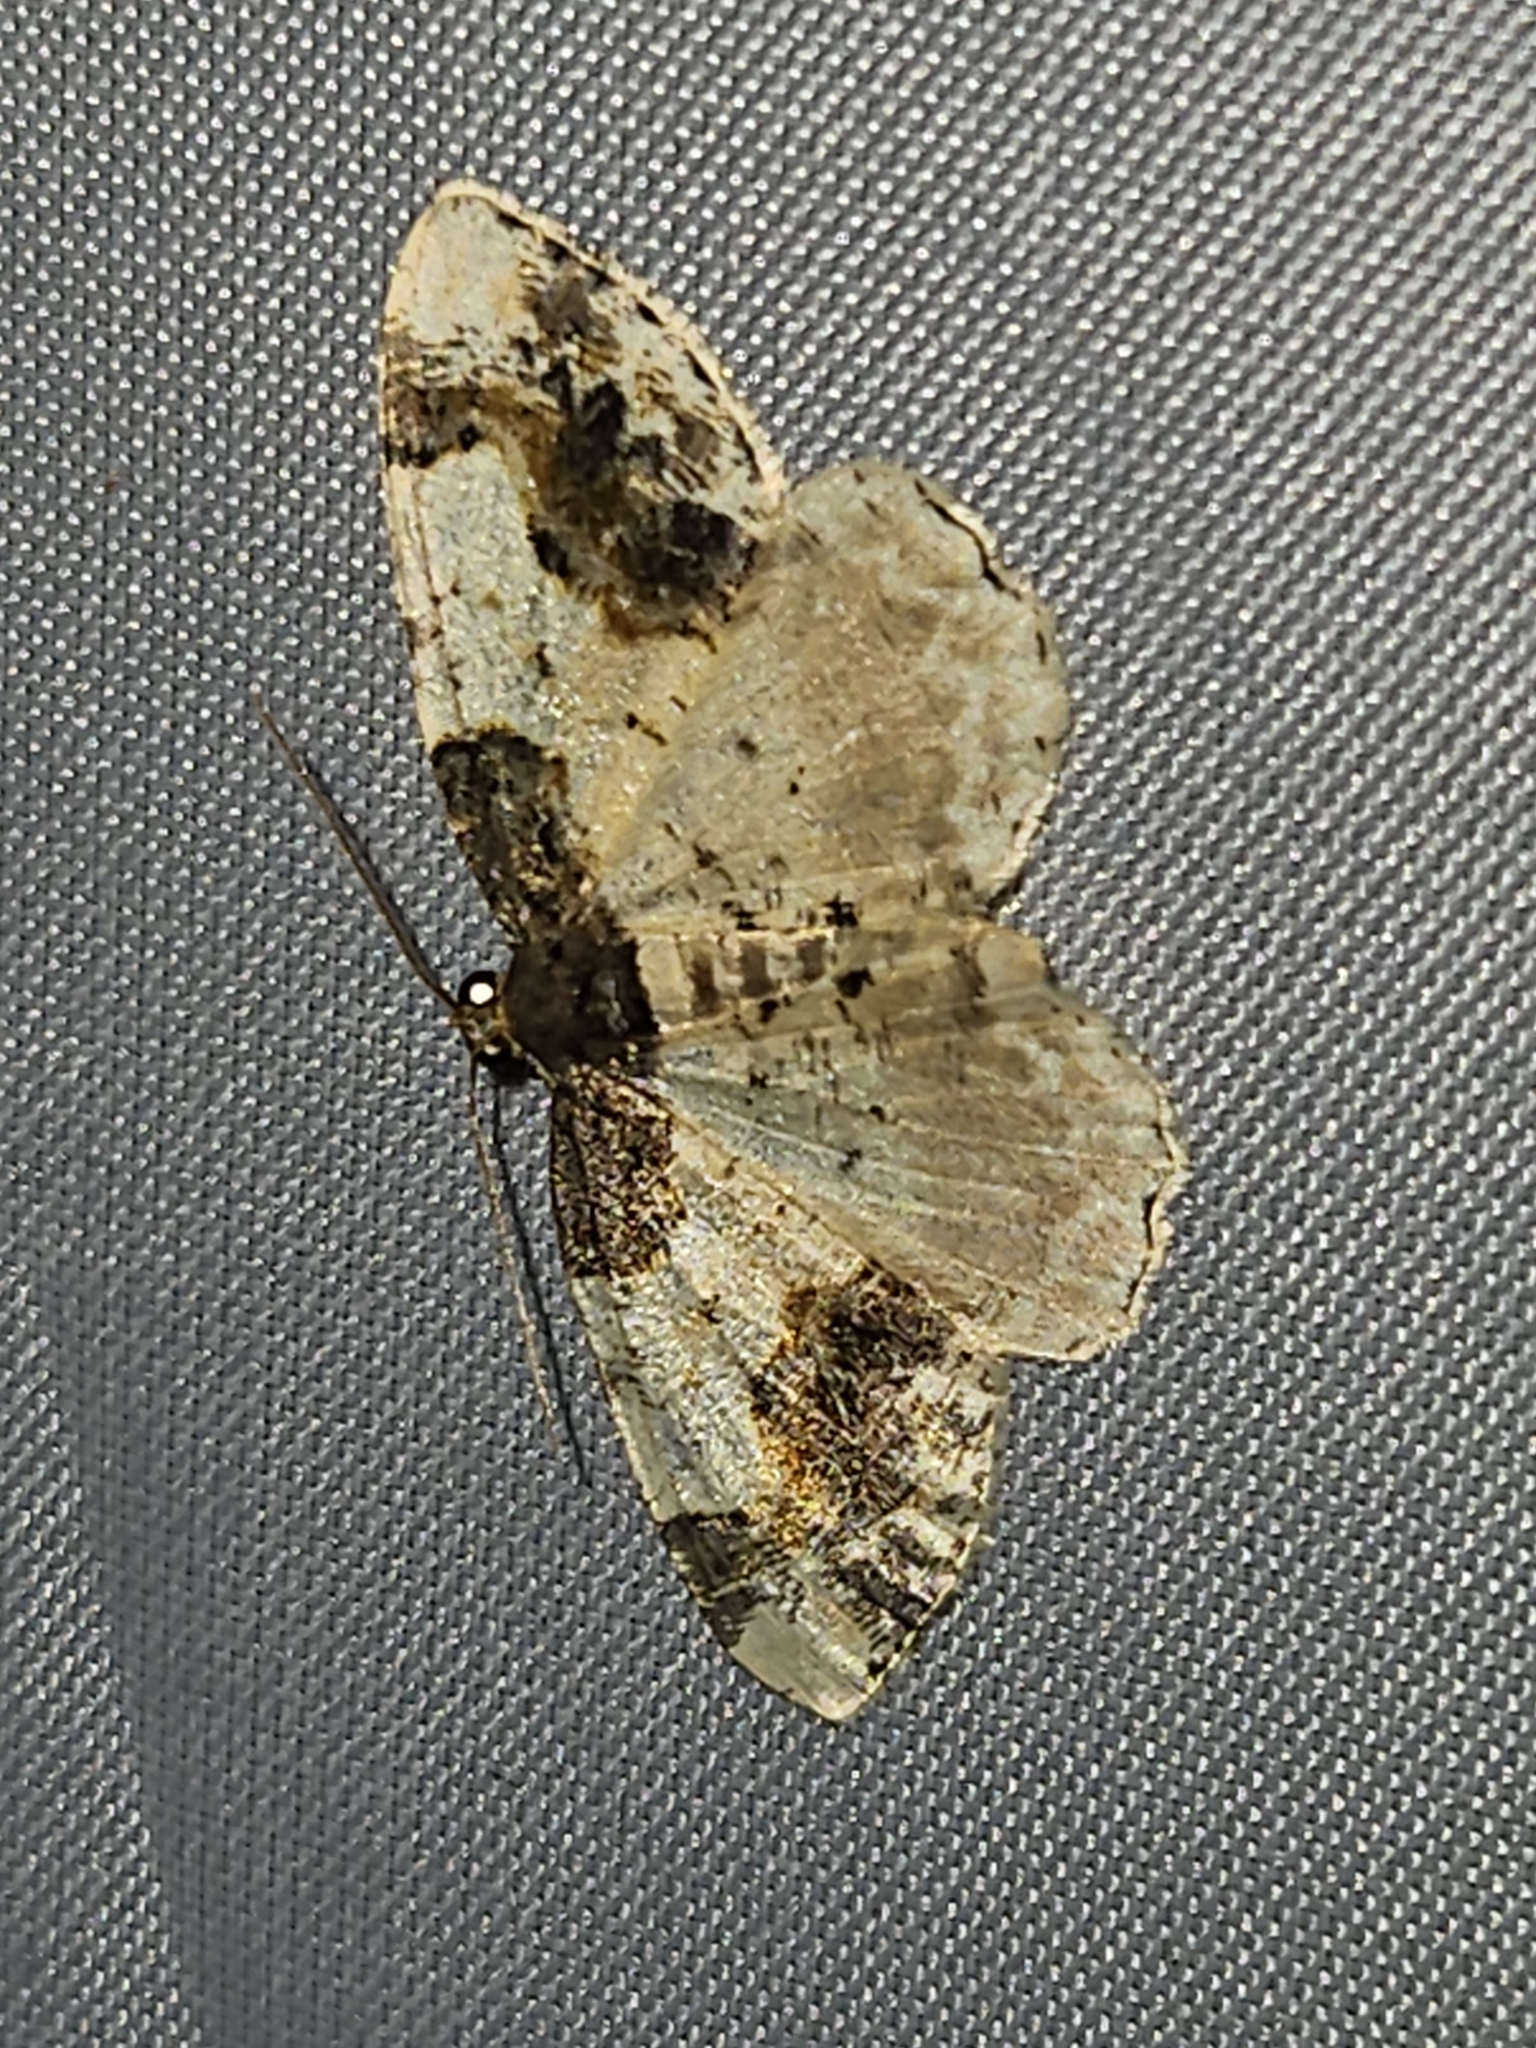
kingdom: Animalia
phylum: Arthropoda
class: Insecta
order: Lepidoptera
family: Geometridae
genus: Ligdia
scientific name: Ligdia adustata
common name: Scorched carpet
